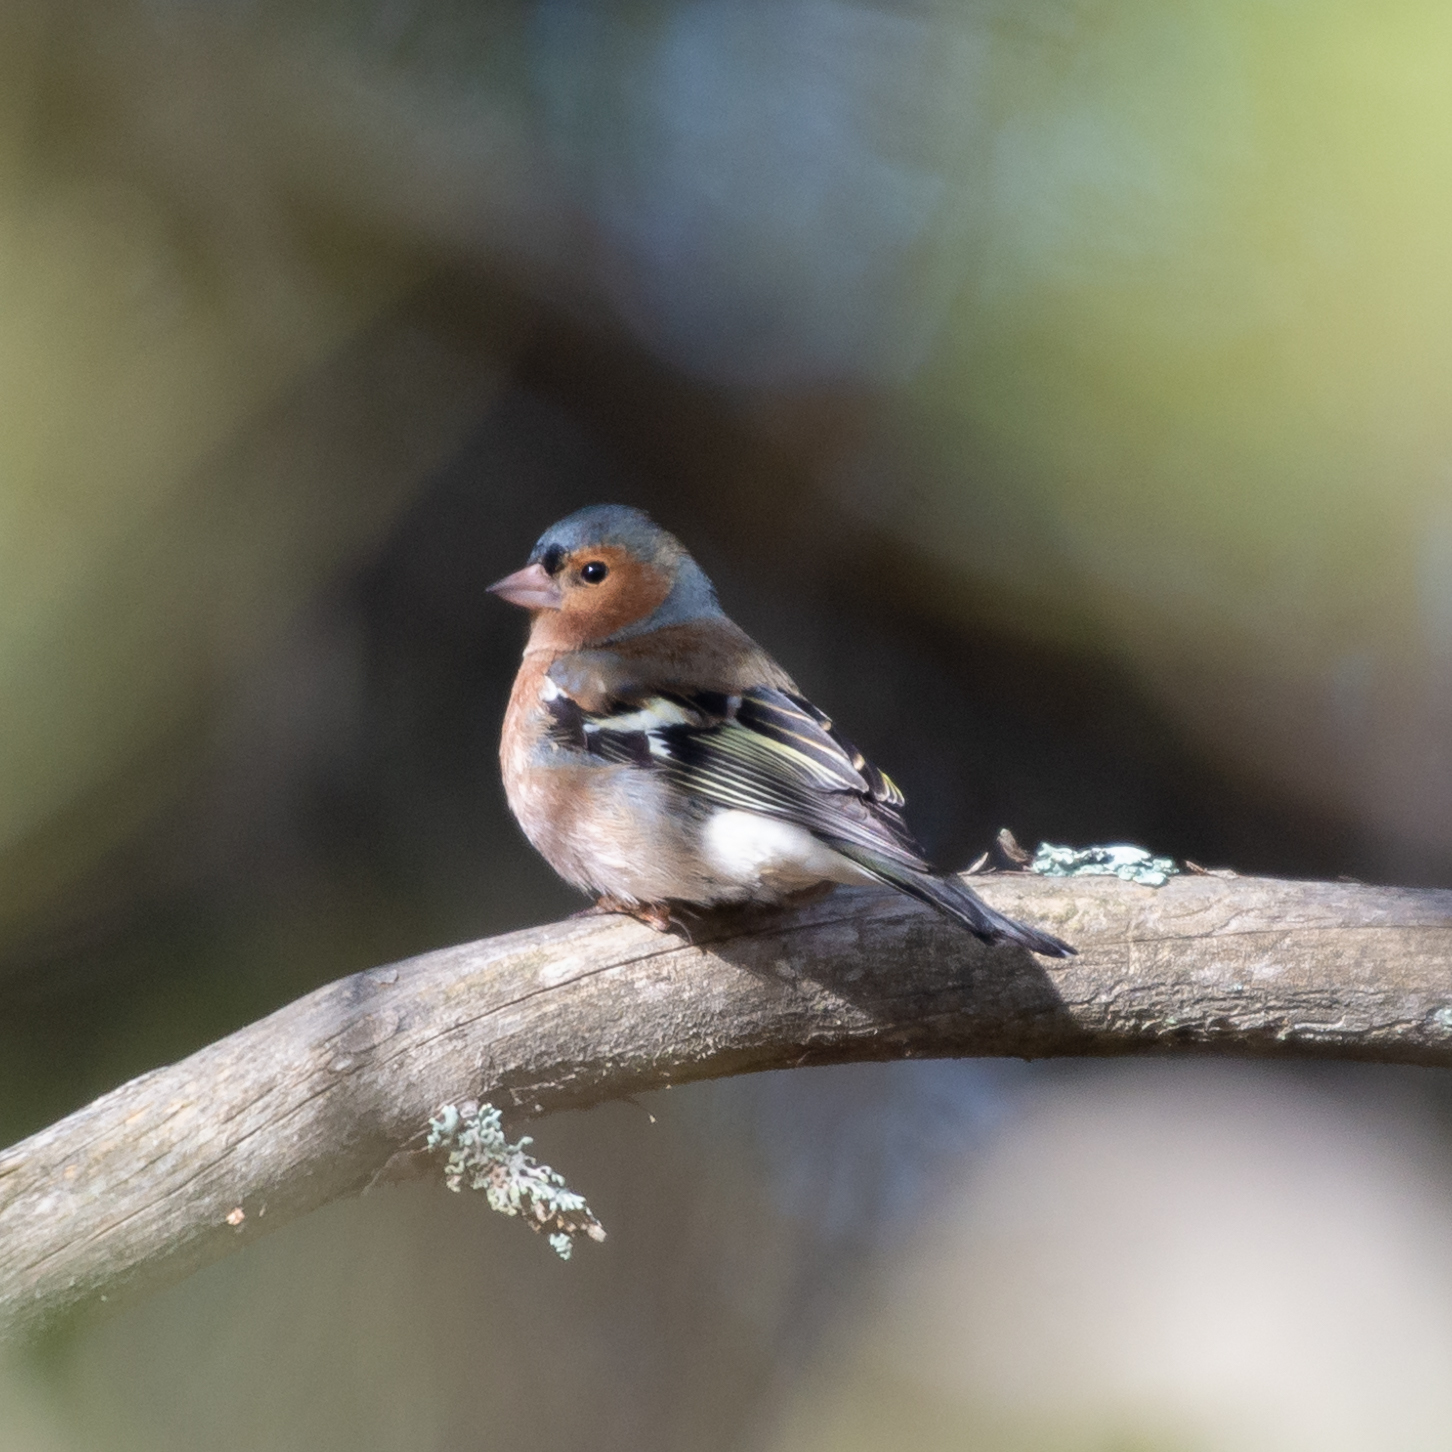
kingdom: Animalia
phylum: Chordata
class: Aves
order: Passeriformes
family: Fringillidae
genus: Fringilla
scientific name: Fringilla coelebs
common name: Common chaffinch
